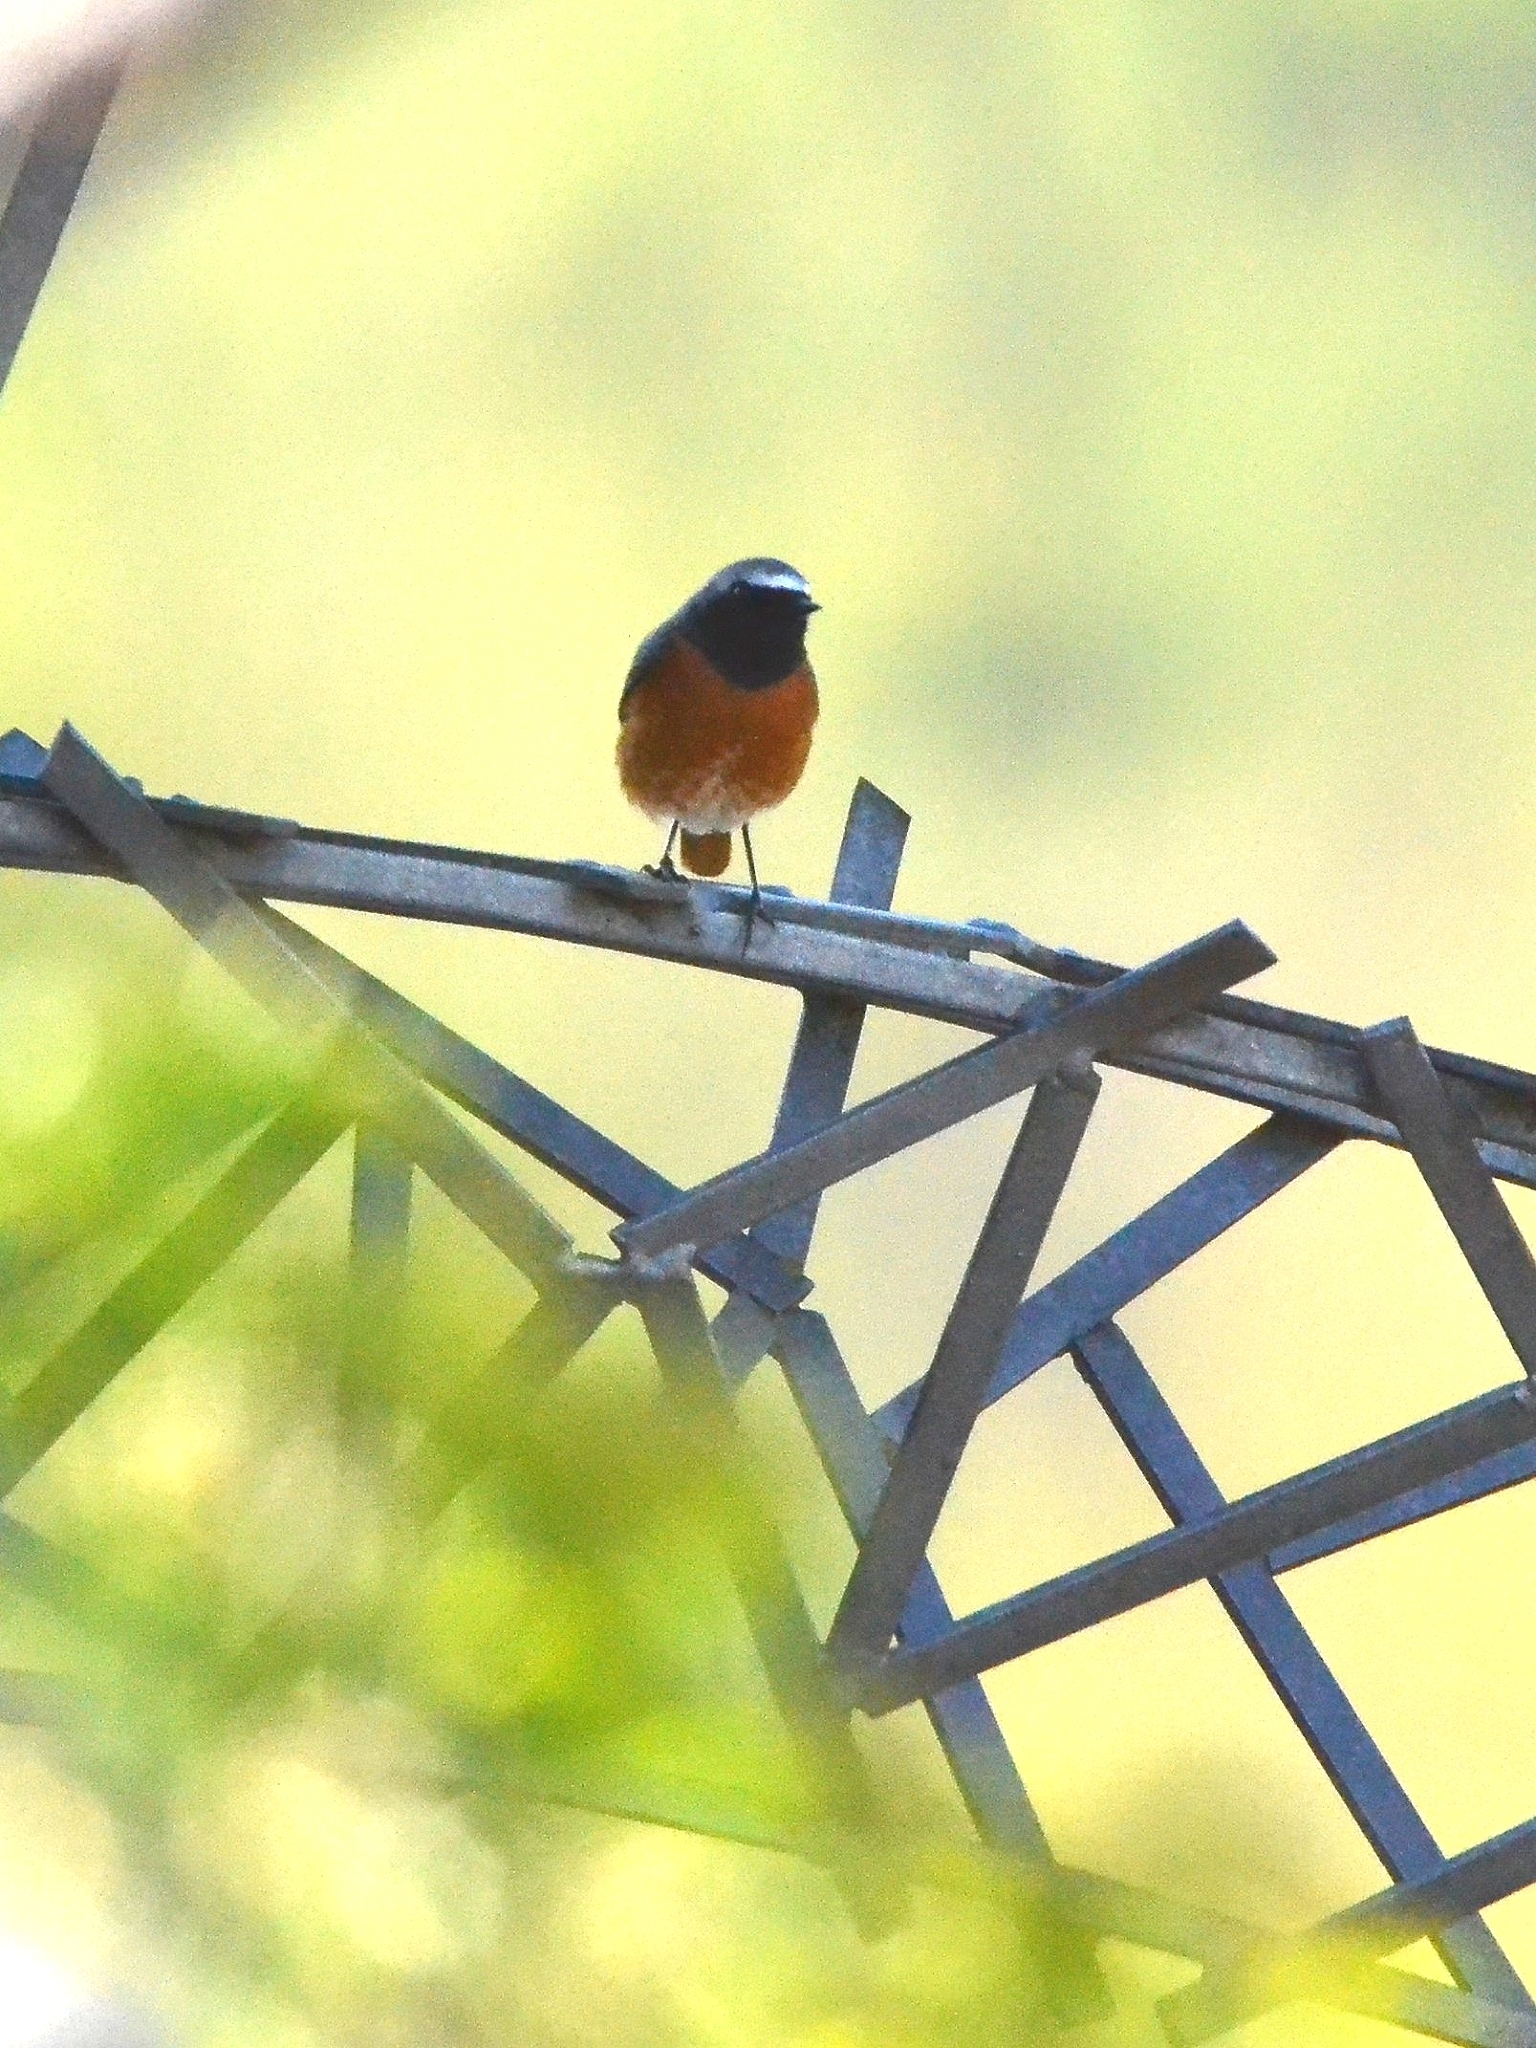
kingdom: Animalia
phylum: Chordata
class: Aves
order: Passeriformes
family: Muscicapidae
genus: Phoenicurus
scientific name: Phoenicurus phoenicurus
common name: Common redstart
